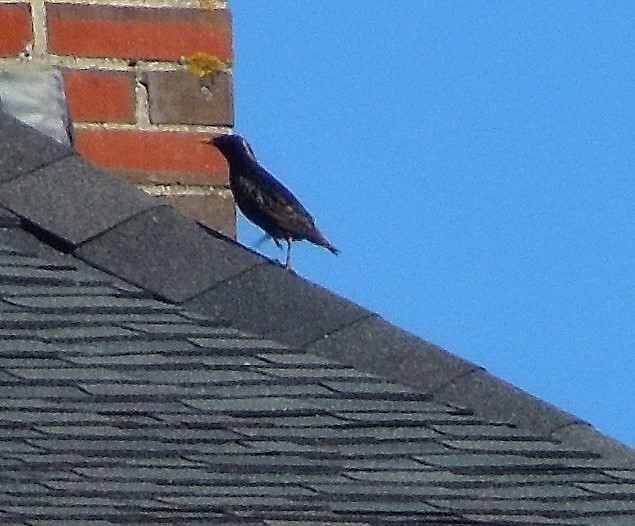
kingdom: Animalia
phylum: Chordata
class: Aves
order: Passeriformes
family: Sturnidae
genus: Sturnus
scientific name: Sturnus vulgaris
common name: Common starling
